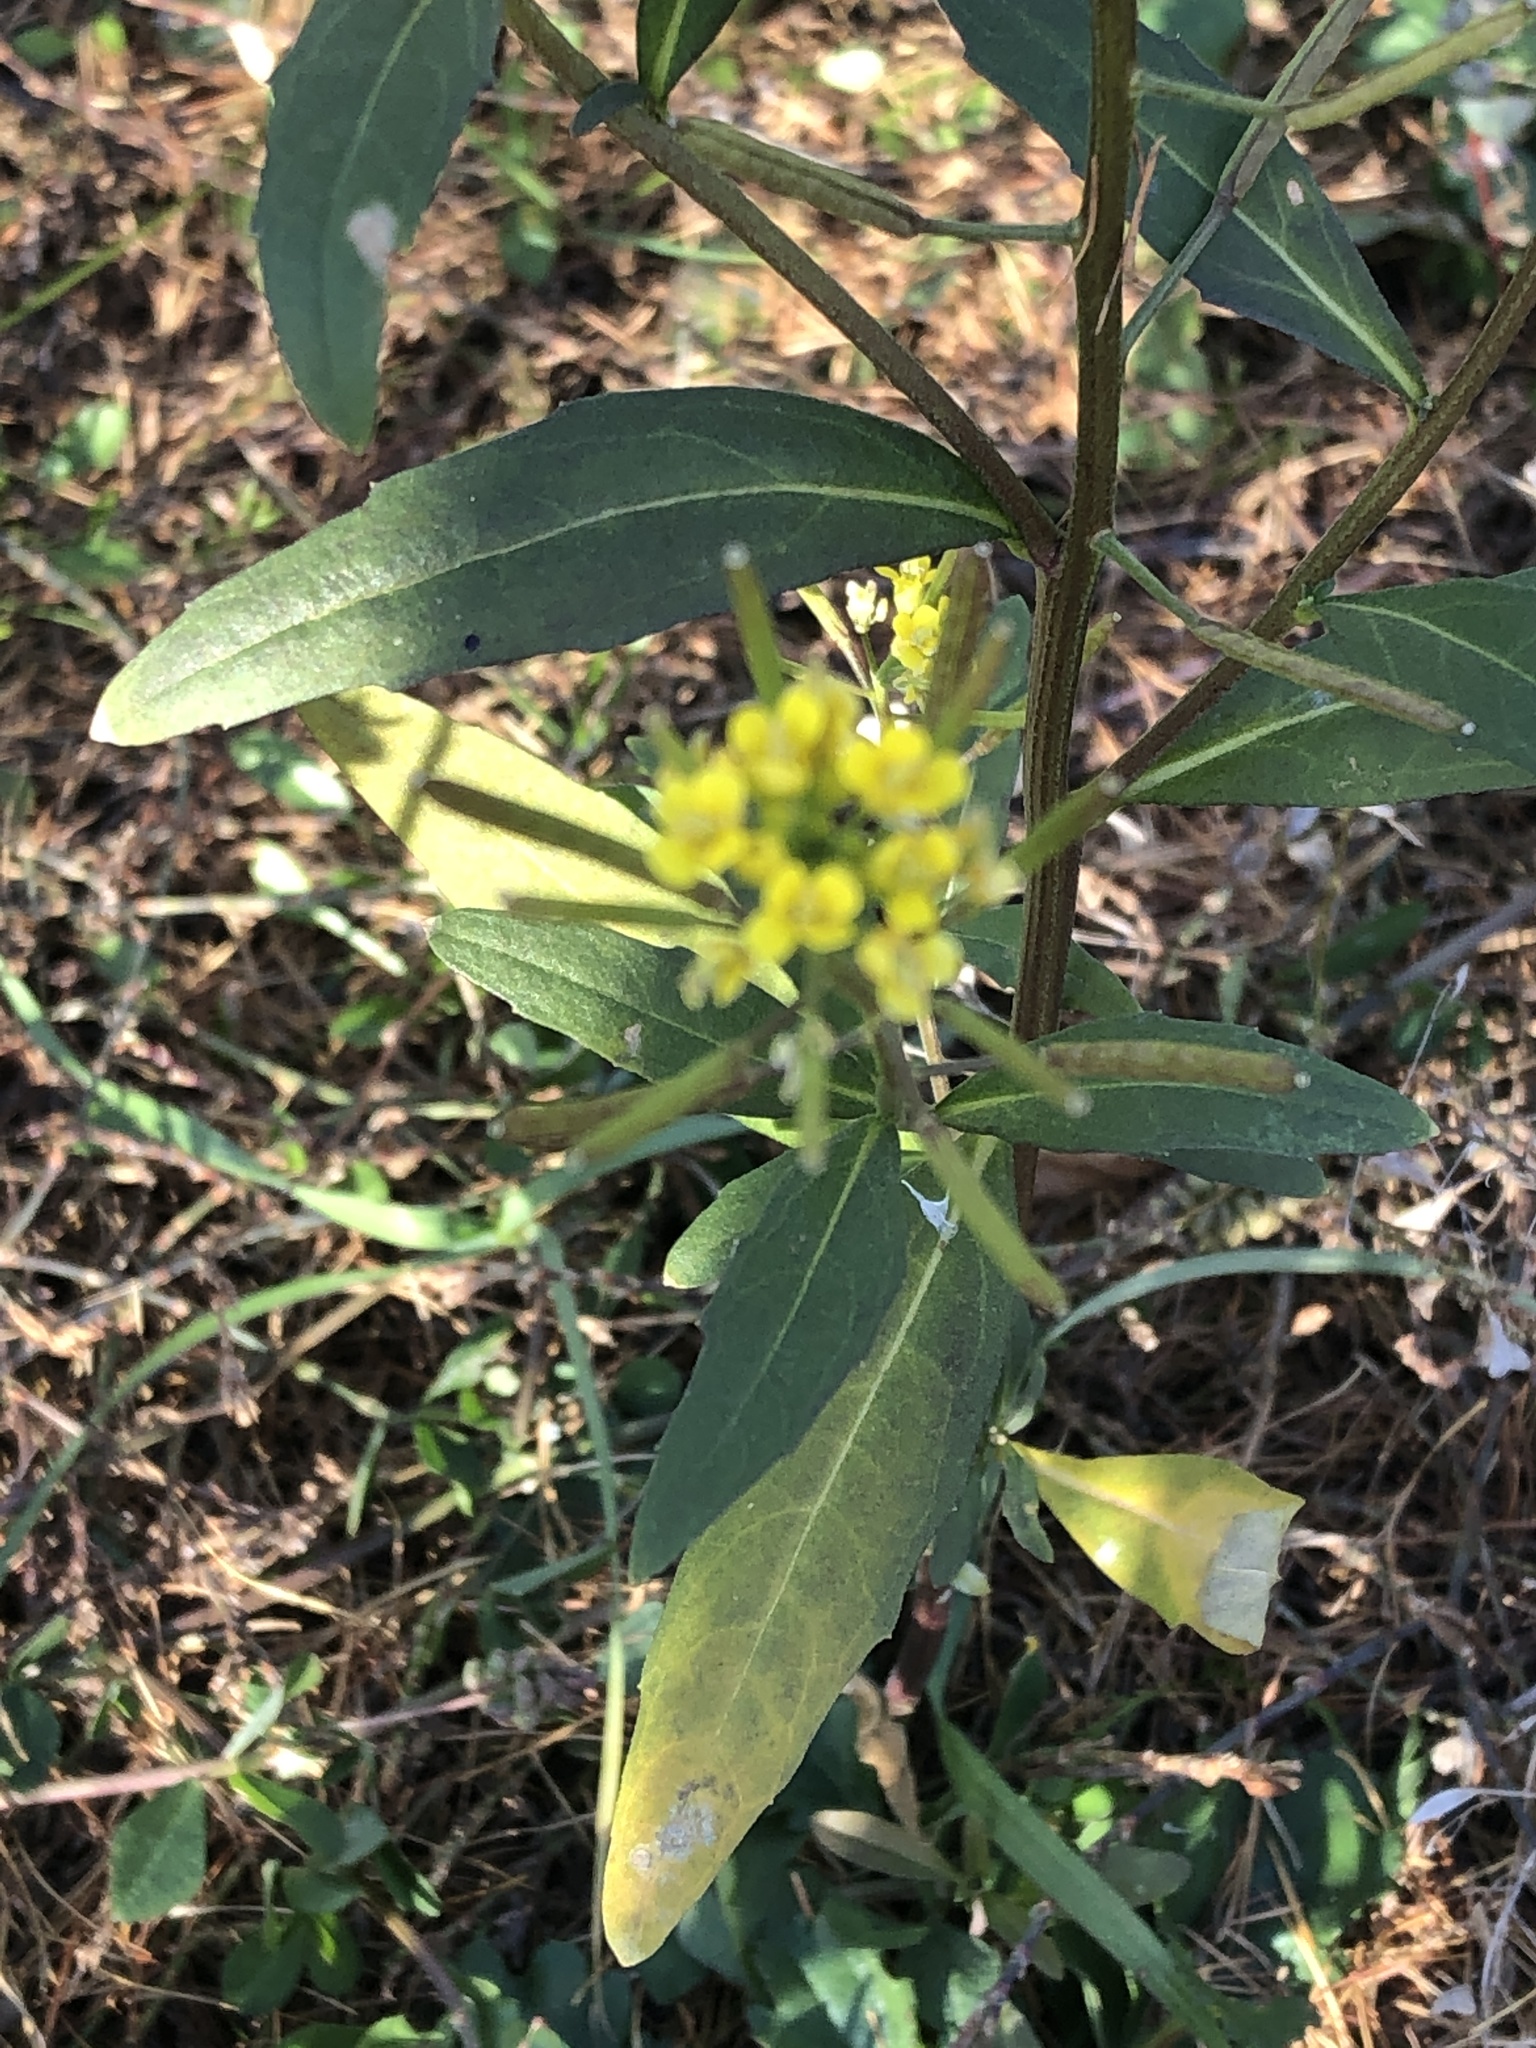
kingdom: Plantae
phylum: Tracheophyta
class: Magnoliopsida
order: Brassicales
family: Brassicaceae
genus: Erysimum
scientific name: Erysimum cheiranthoides
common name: Treacle mustard
